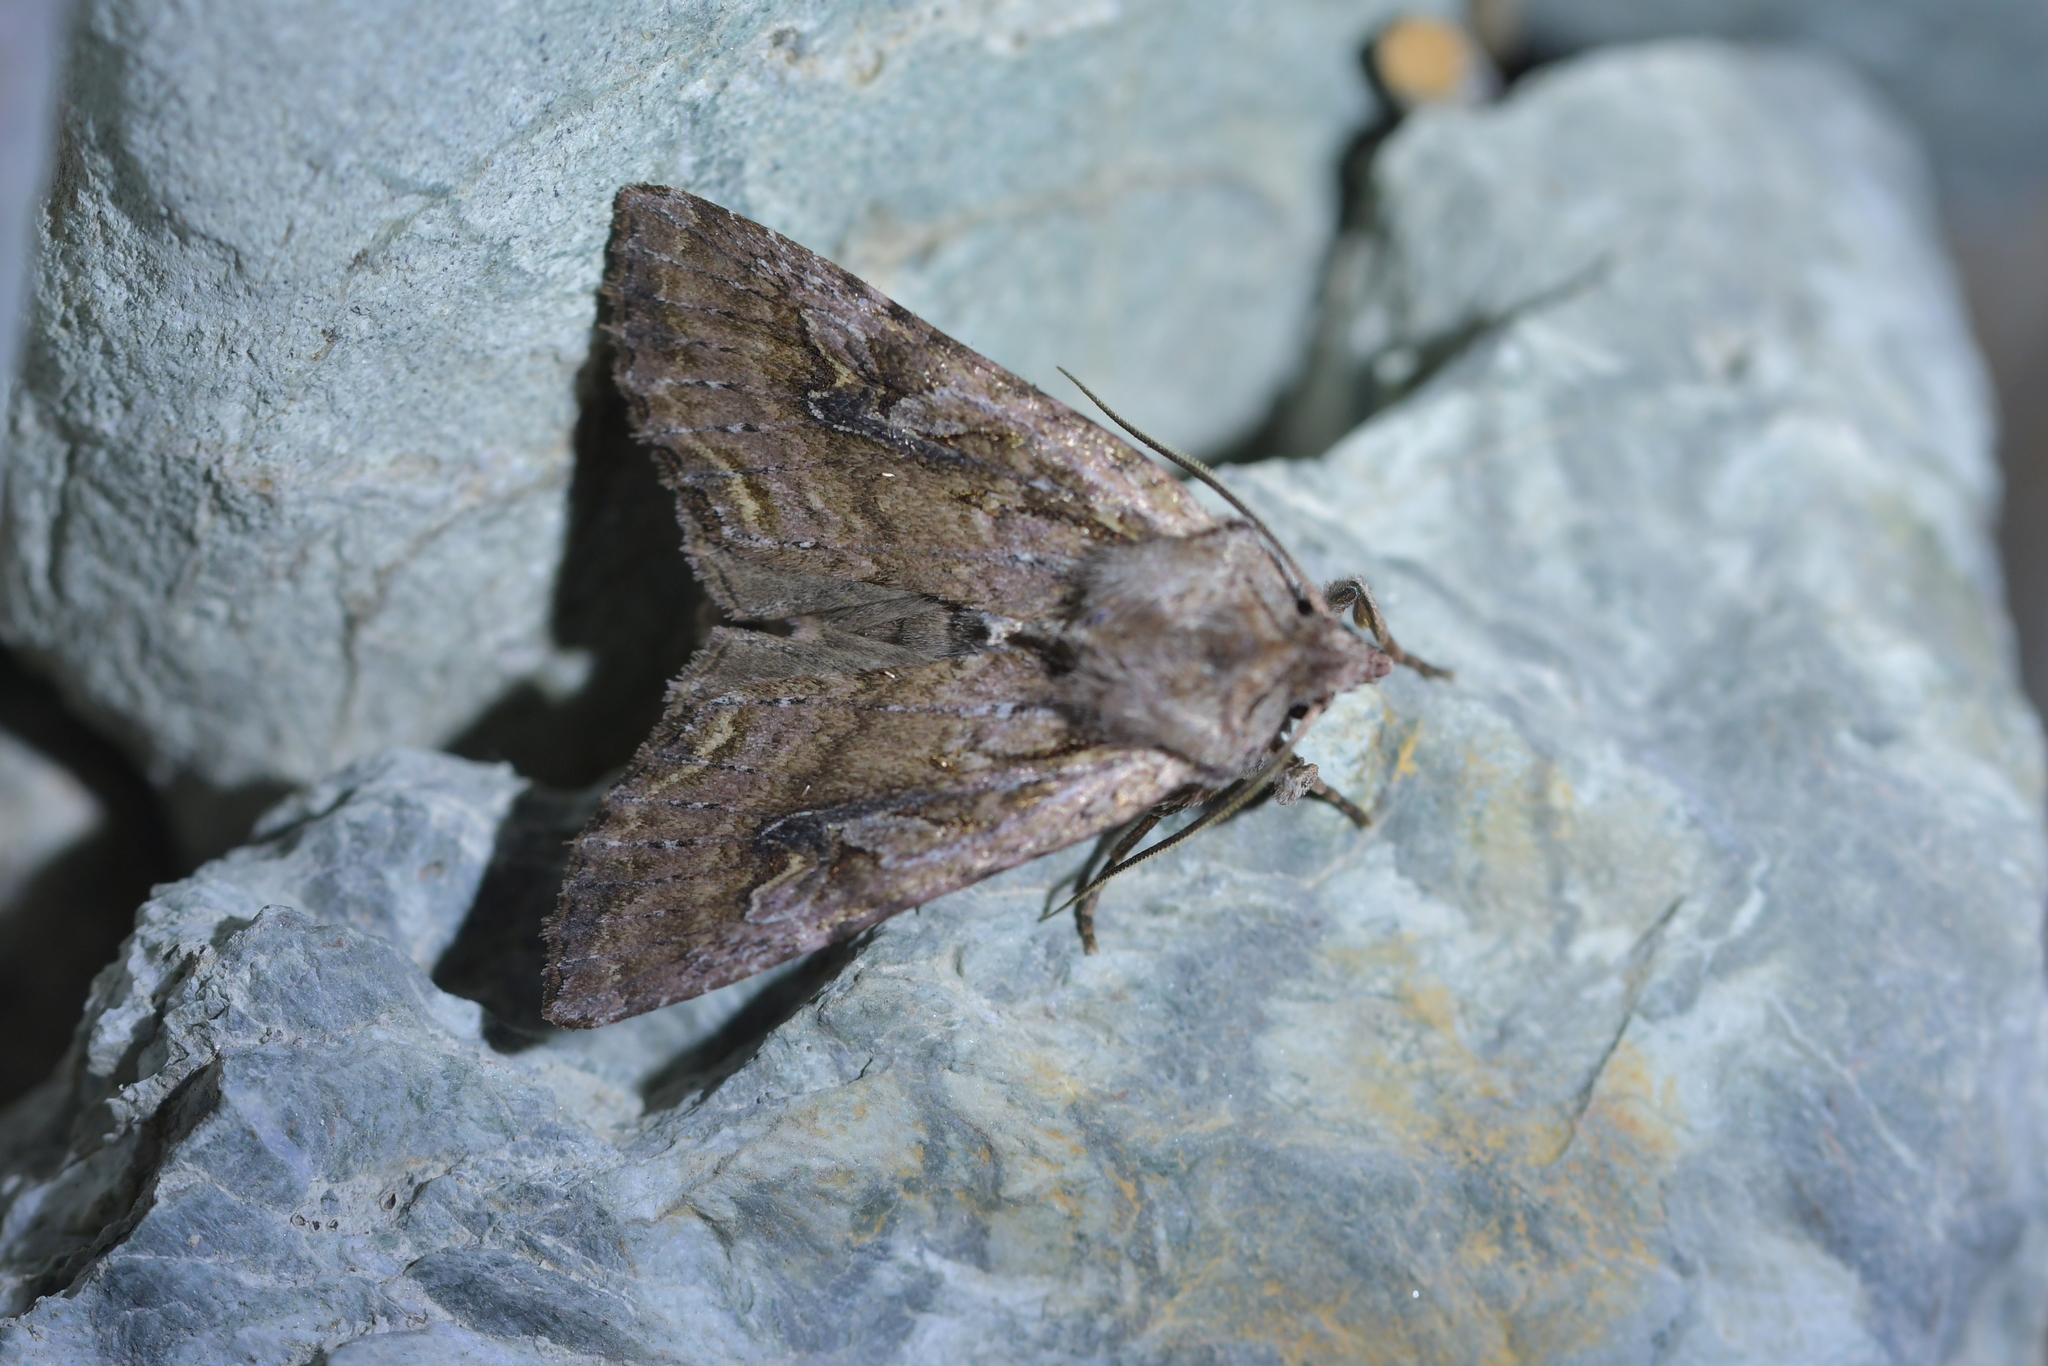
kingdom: Animalia
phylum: Arthropoda
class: Insecta
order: Lepidoptera
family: Noctuidae
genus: Ichneutica
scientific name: Ichneutica lindsayorum
